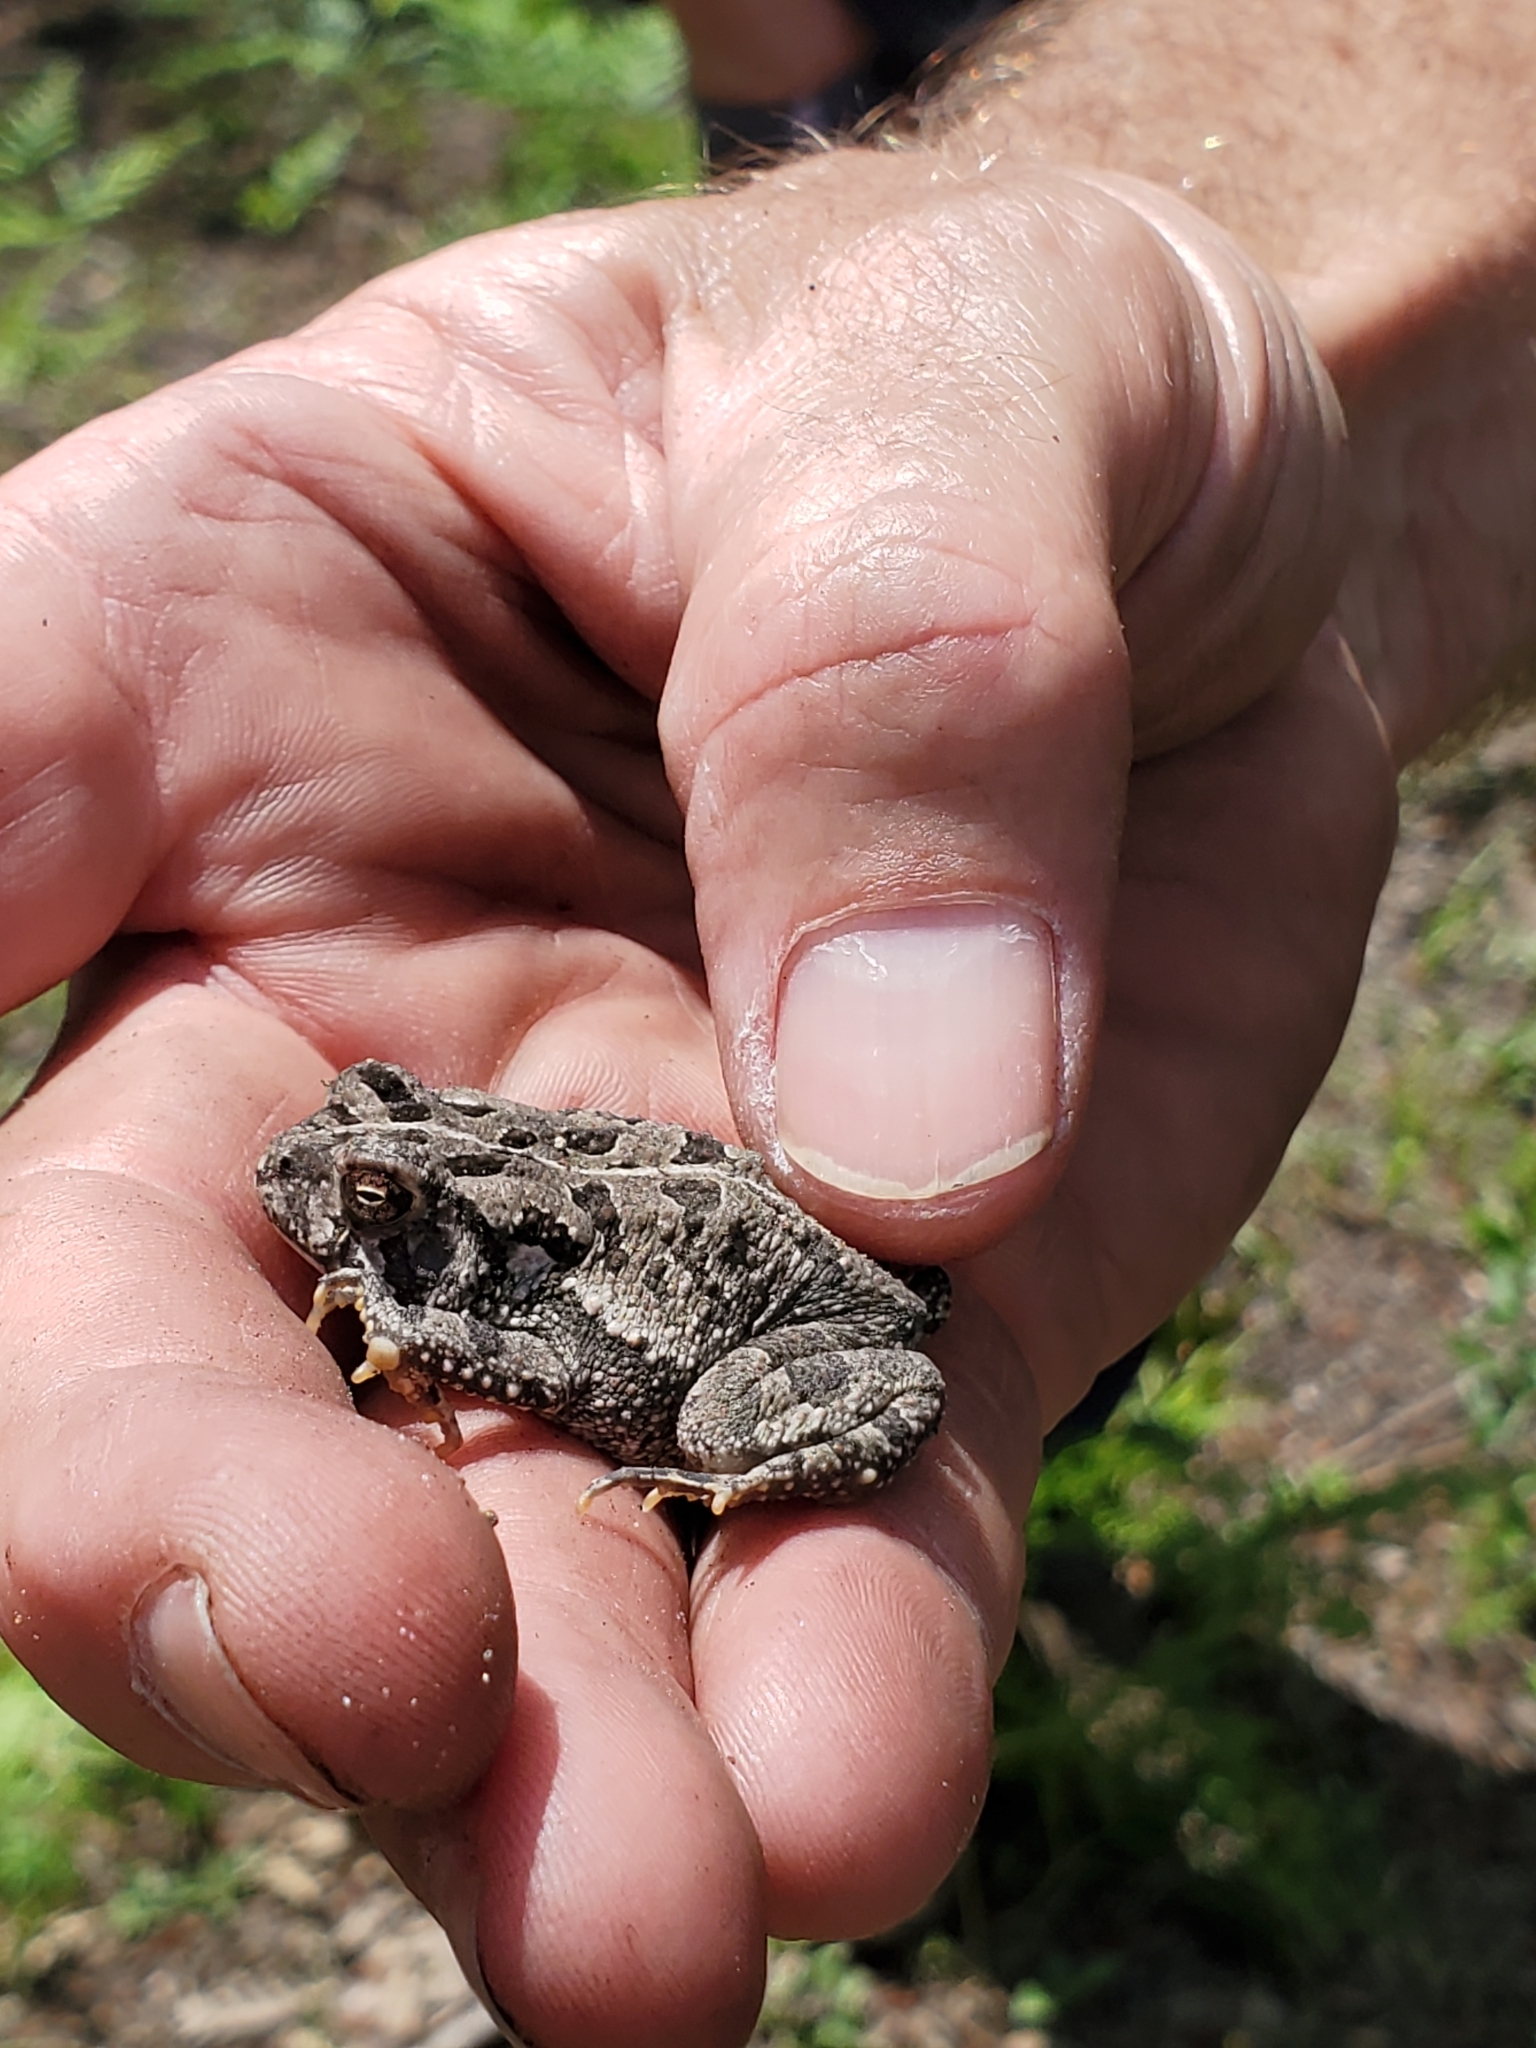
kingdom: Animalia
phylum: Chordata
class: Amphibia
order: Anura
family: Bufonidae
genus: Anaxyrus
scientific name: Anaxyrus fowleri
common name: Fowler's toad
